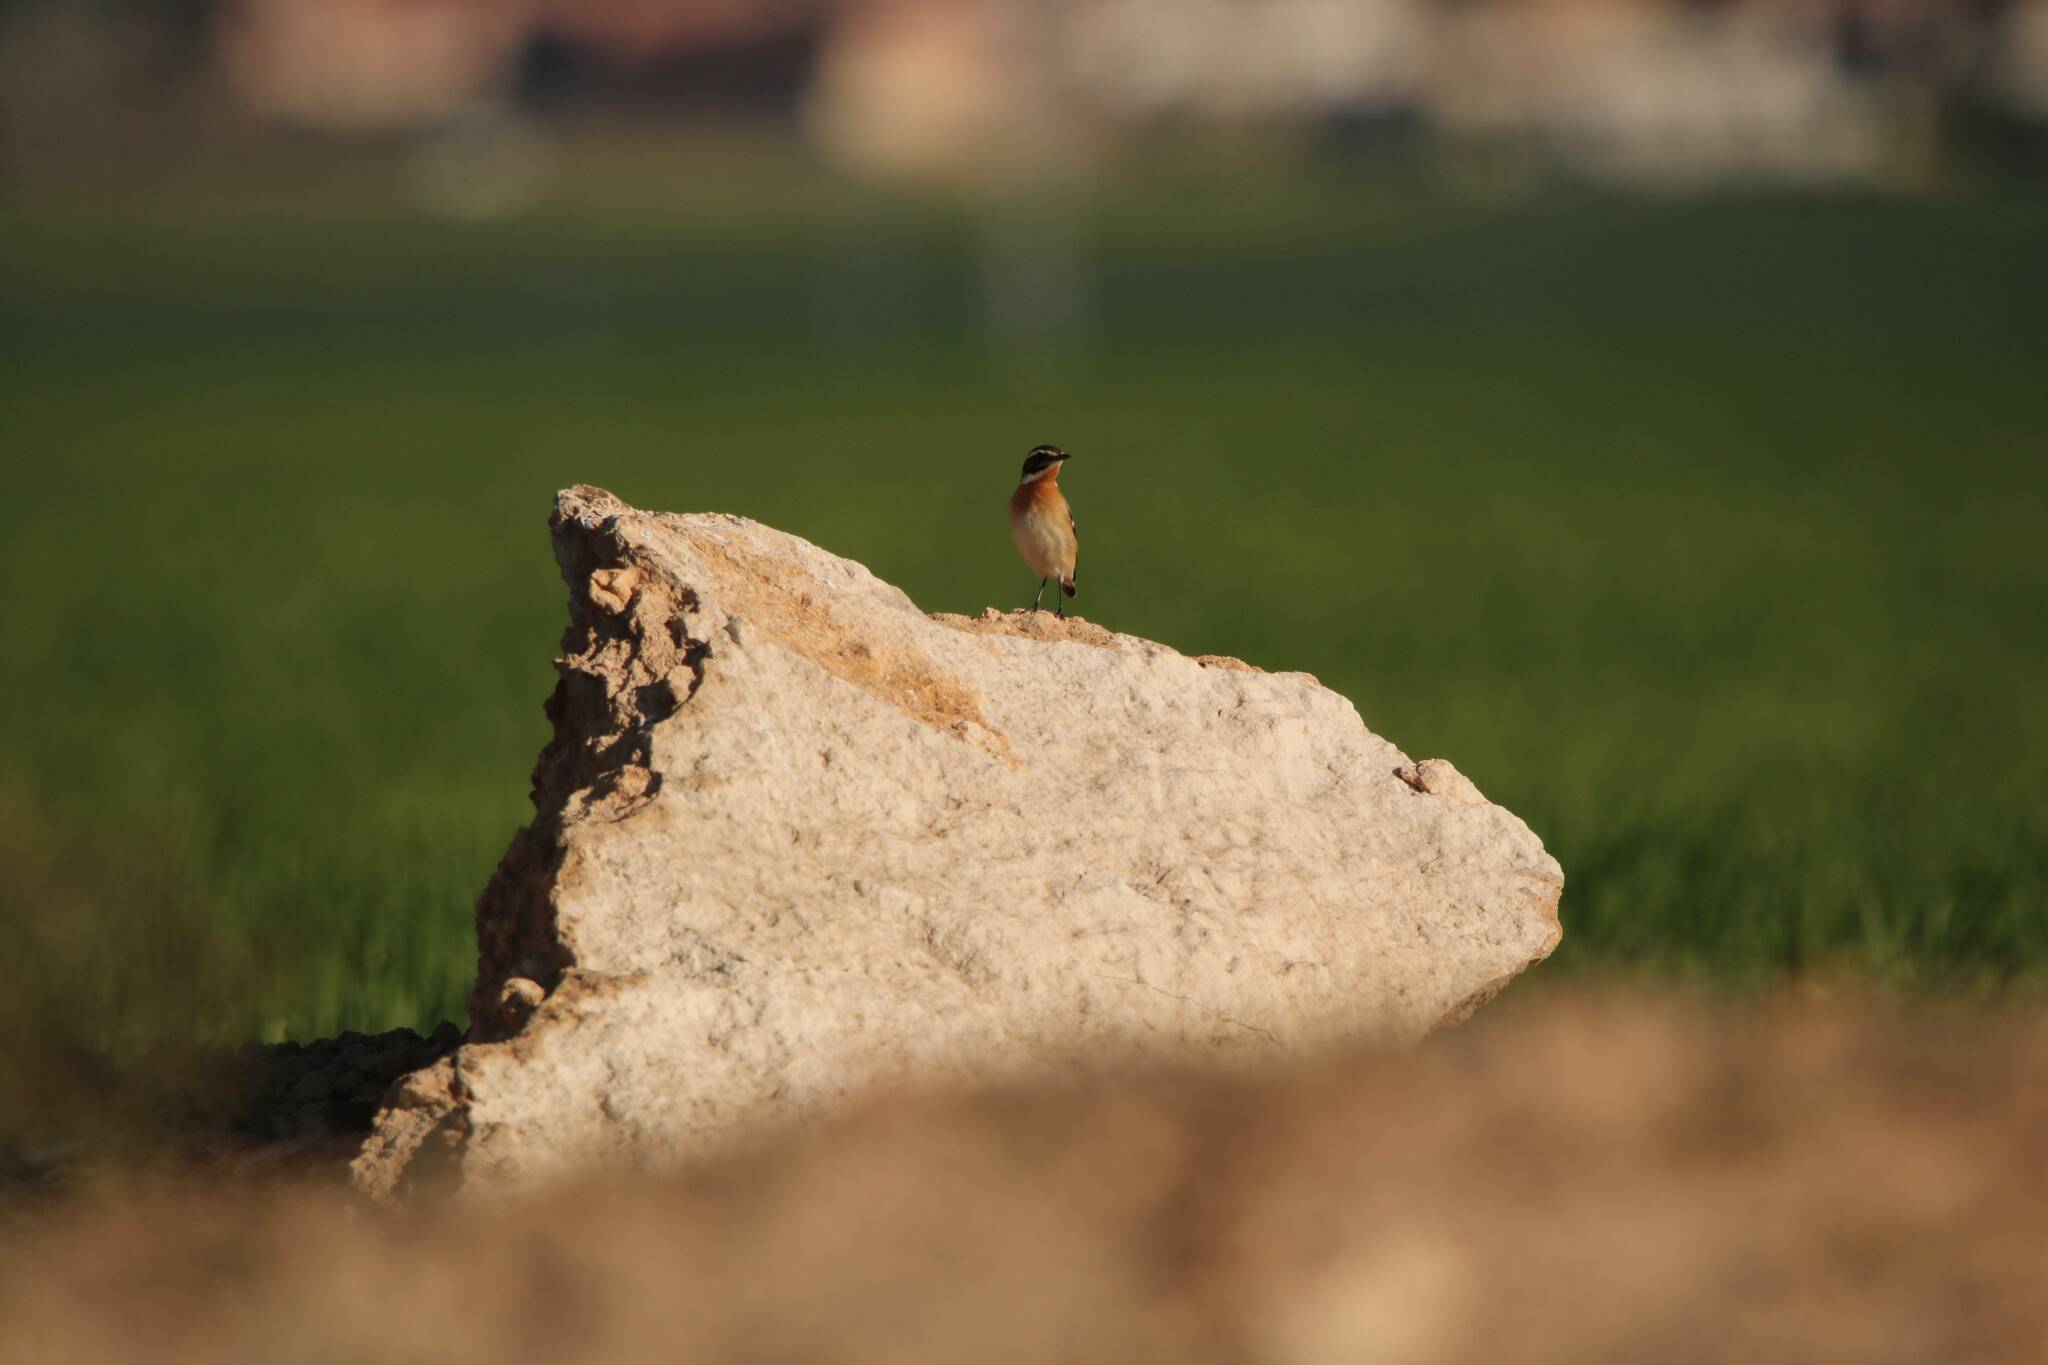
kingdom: Animalia
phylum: Chordata
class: Aves
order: Passeriformes
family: Muscicapidae
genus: Saxicola
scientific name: Saxicola rubetra
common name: Whinchat
